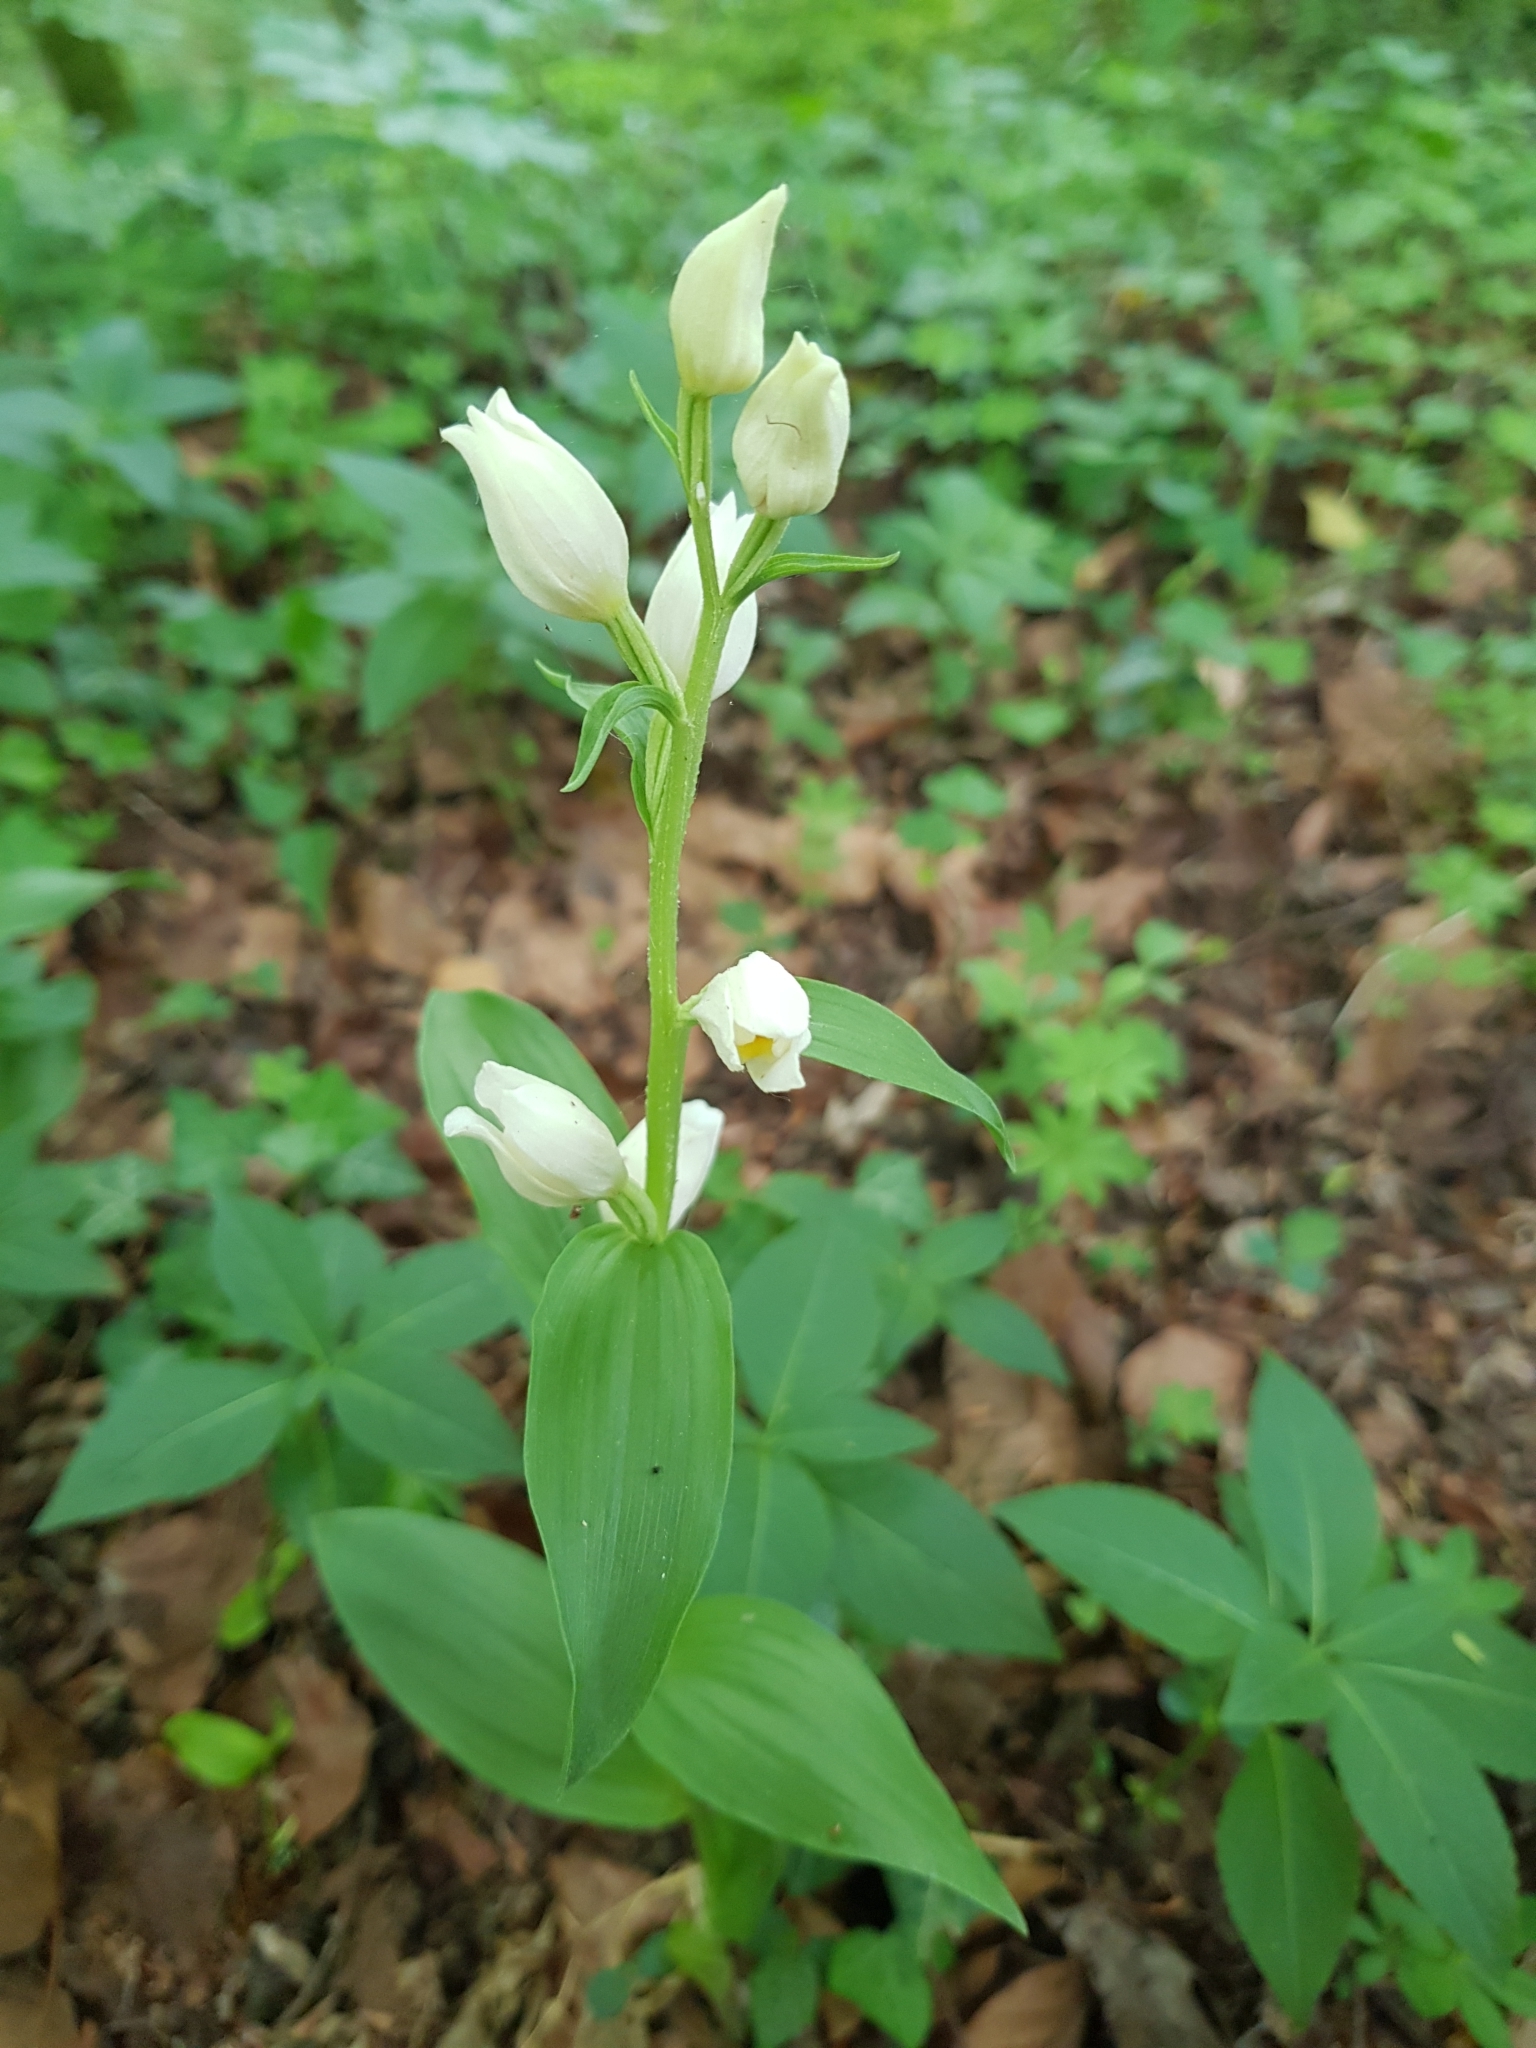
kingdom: Plantae
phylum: Tracheophyta
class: Liliopsida
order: Asparagales
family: Orchidaceae
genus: Cephalanthera
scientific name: Cephalanthera damasonium
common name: White helleborine
